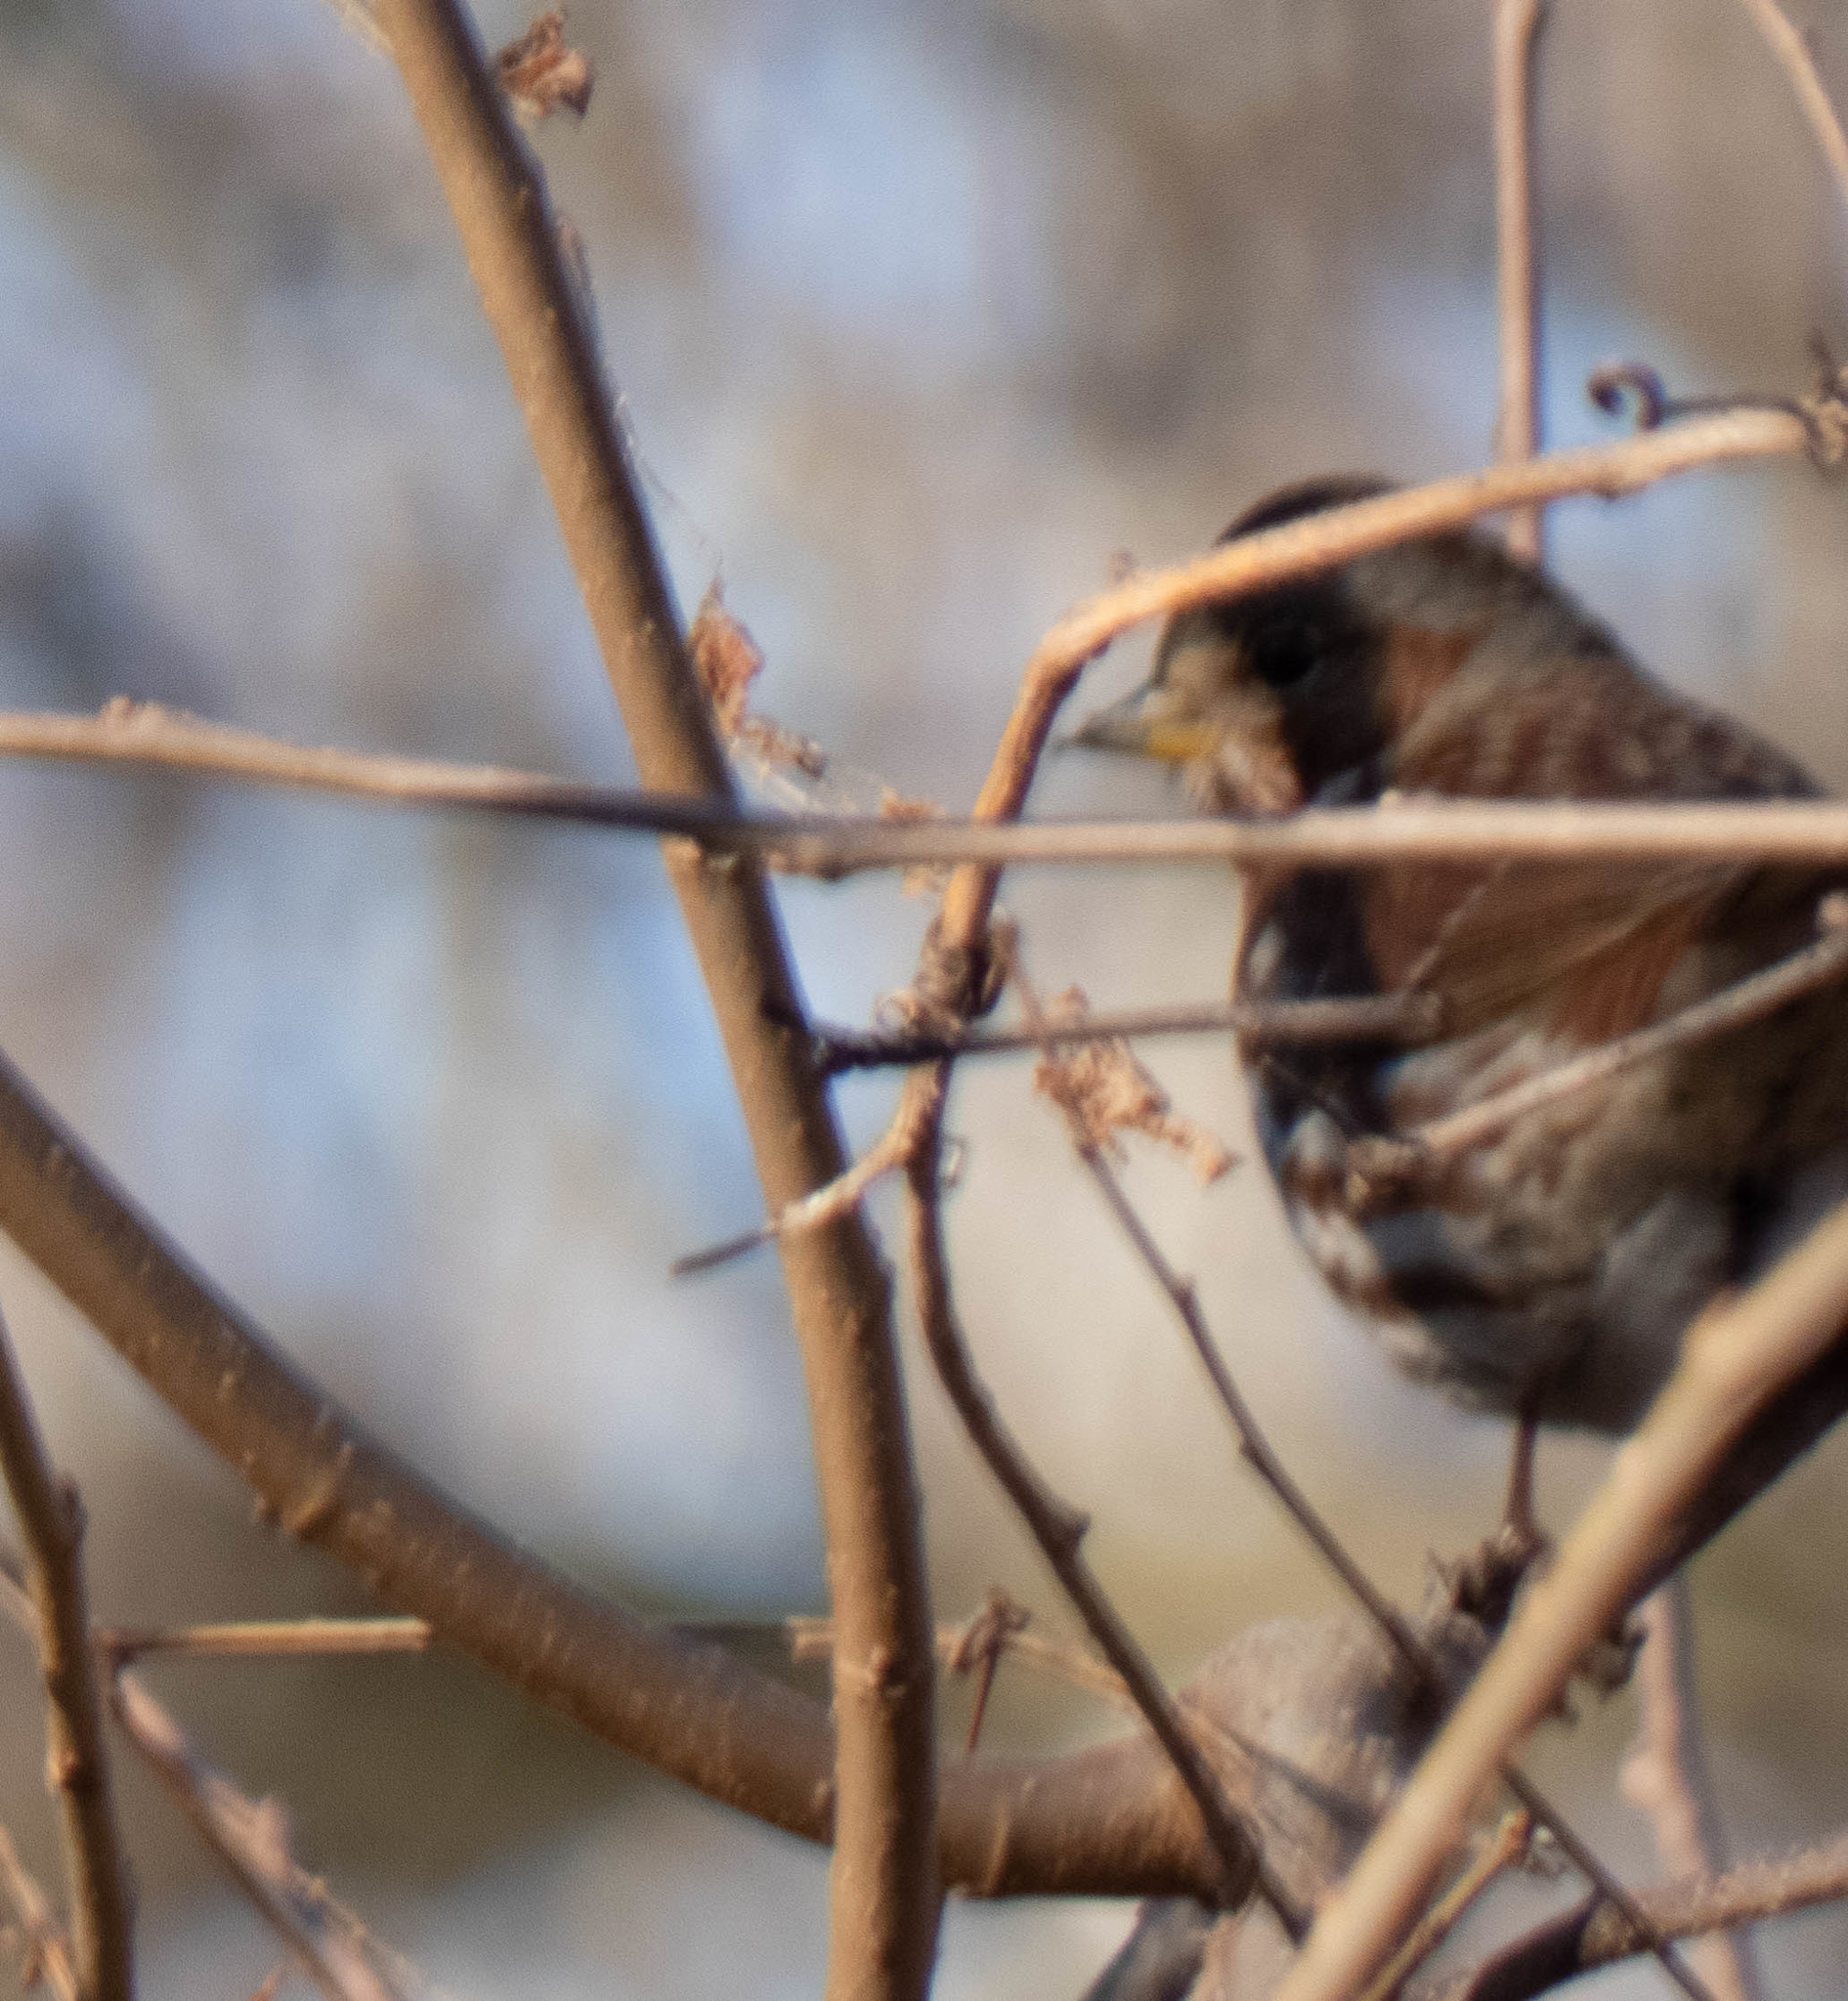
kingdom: Animalia
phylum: Chordata
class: Aves
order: Passeriformes
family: Passerellidae
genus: Passerella
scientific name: Passerella iliaca
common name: Fox sparrow
